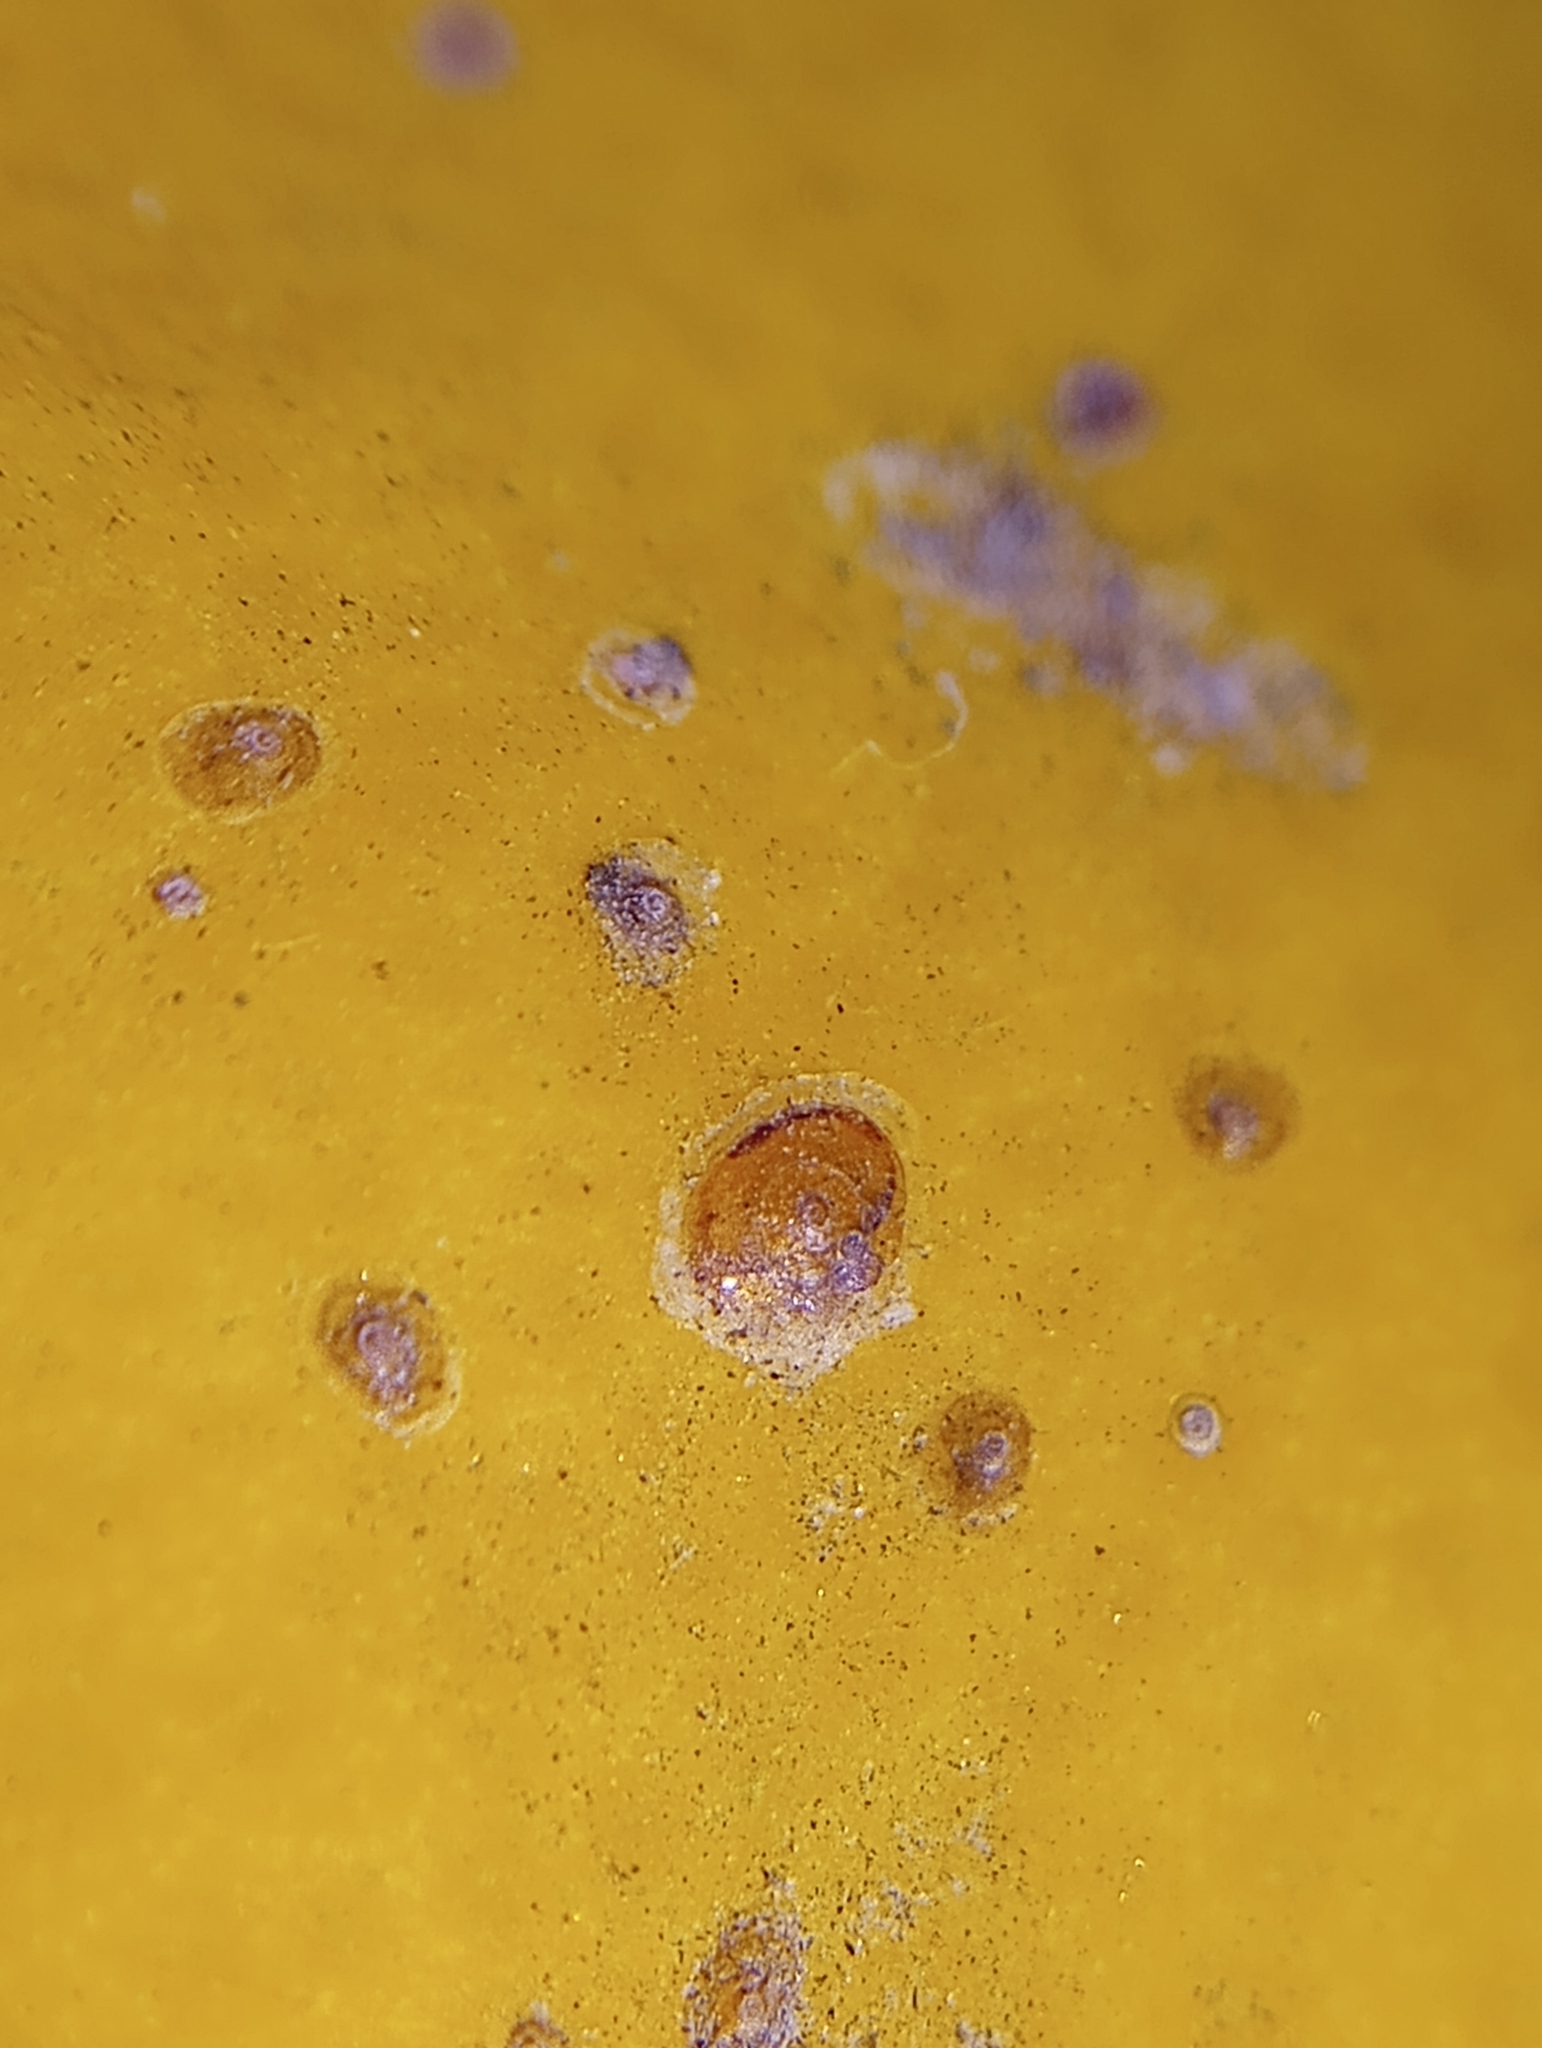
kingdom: Animalia
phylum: Arthropoda
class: Insecta
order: Hemiptera
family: Diaspididae
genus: Aonidiella
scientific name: Aonidiella aurantii
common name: California red scale
